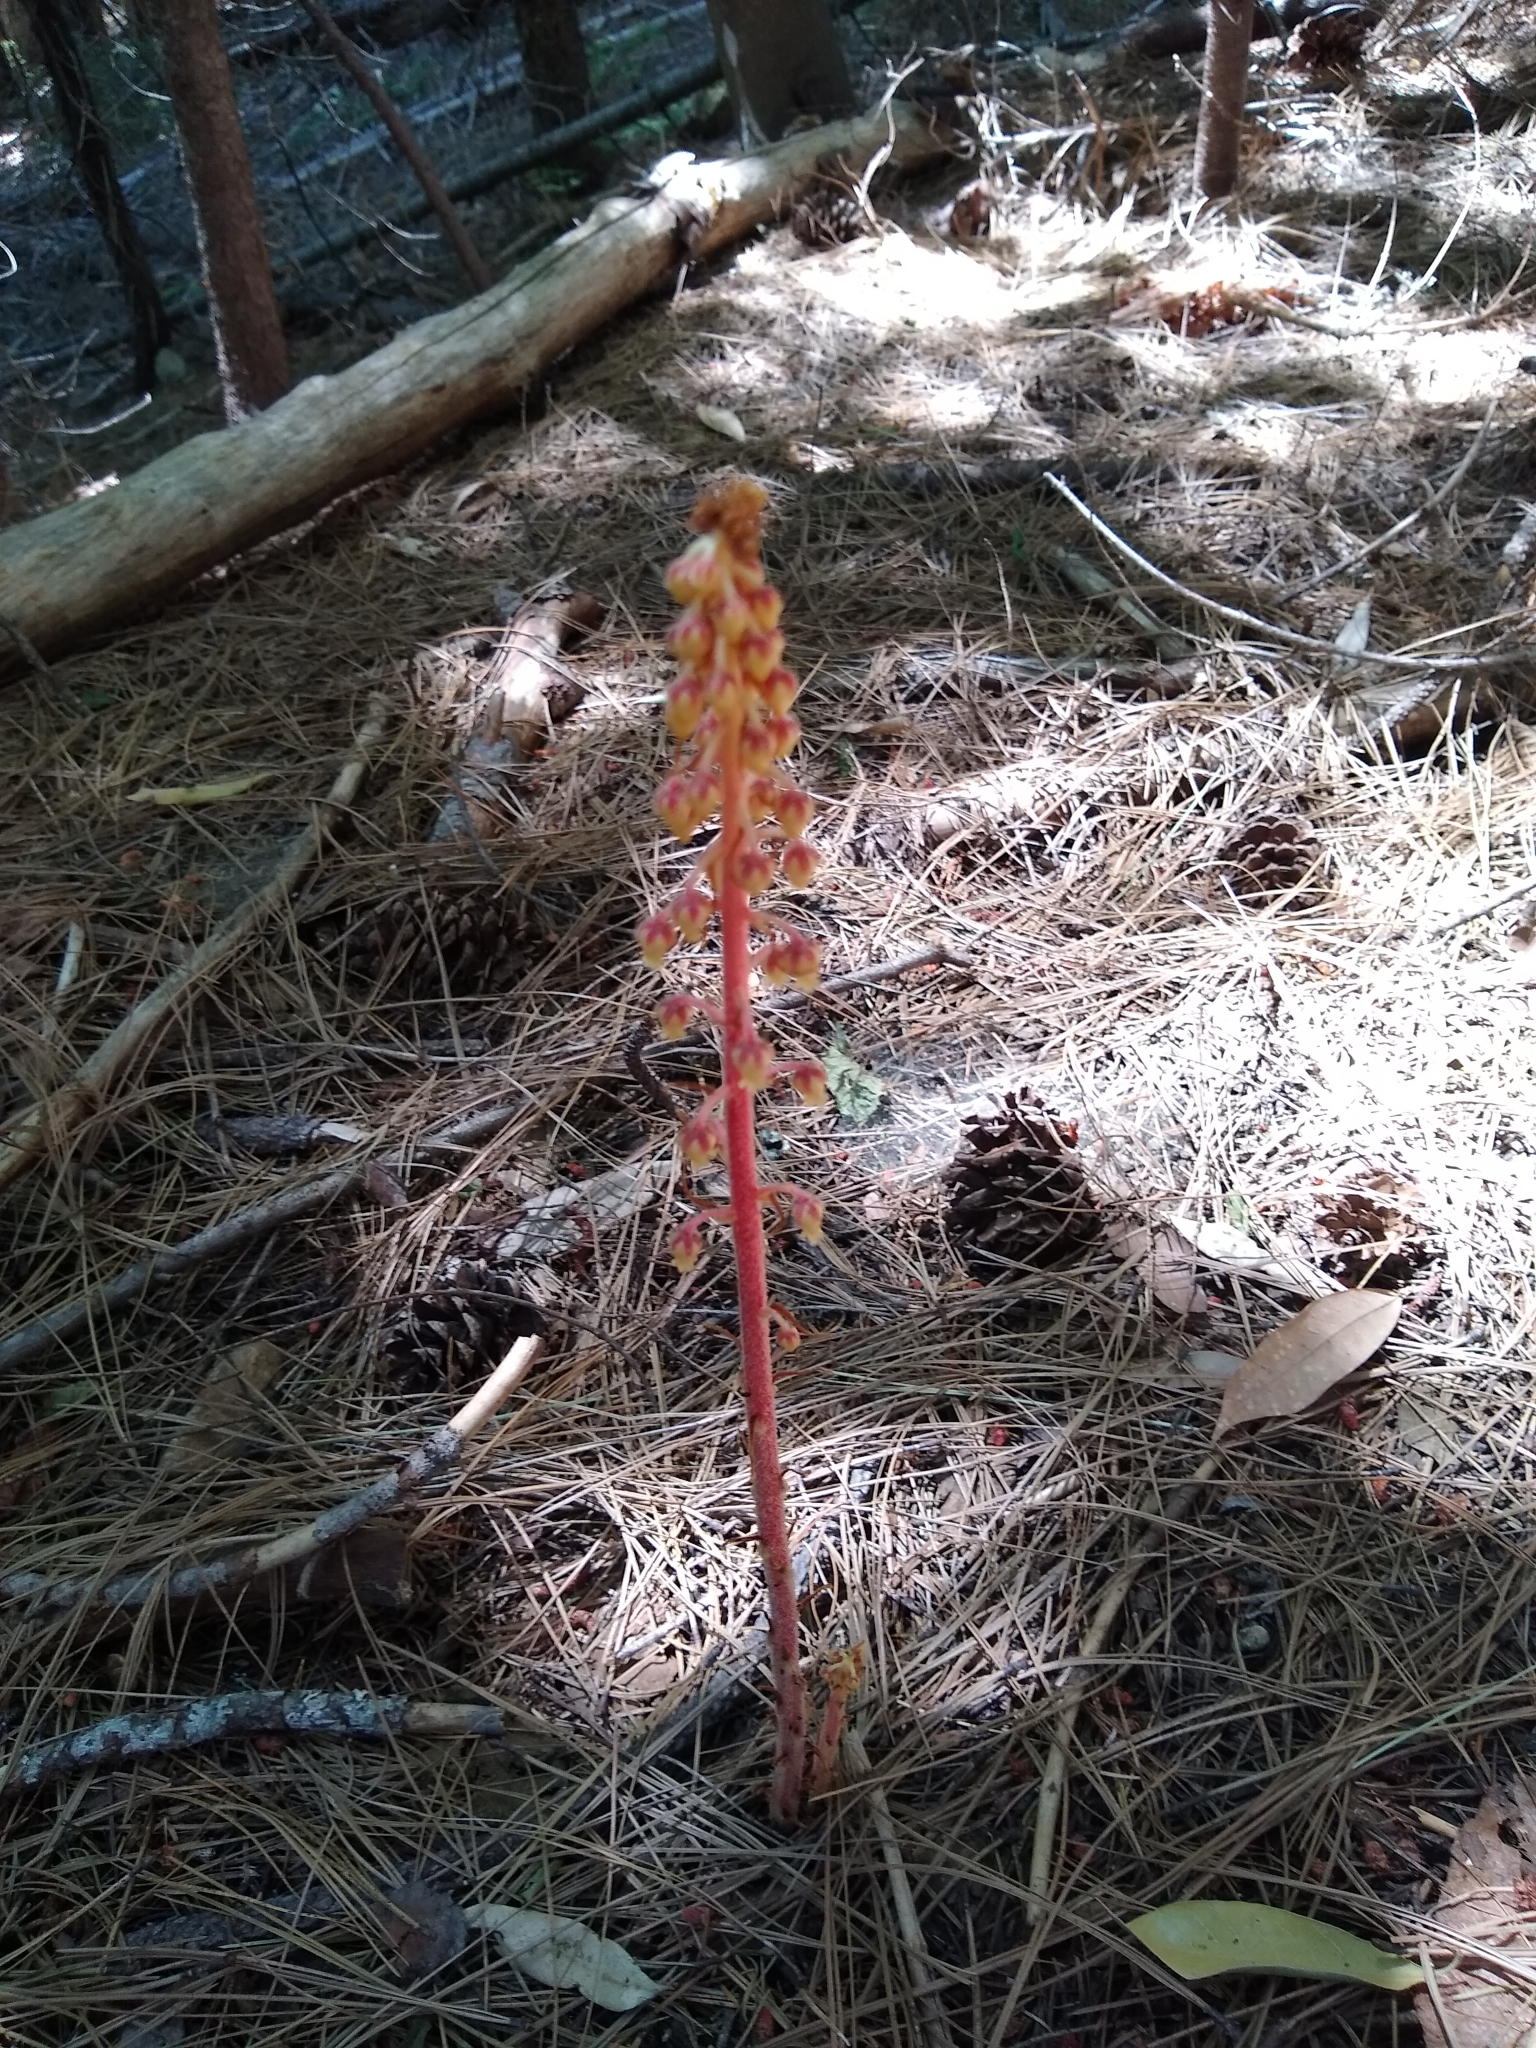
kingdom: Plantae
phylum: Tracheophyta
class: Magnoliopsida
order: Ericales
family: Ericaceae
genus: Pterospora
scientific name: Pterospora andromedea
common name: Giant bird's-nest
